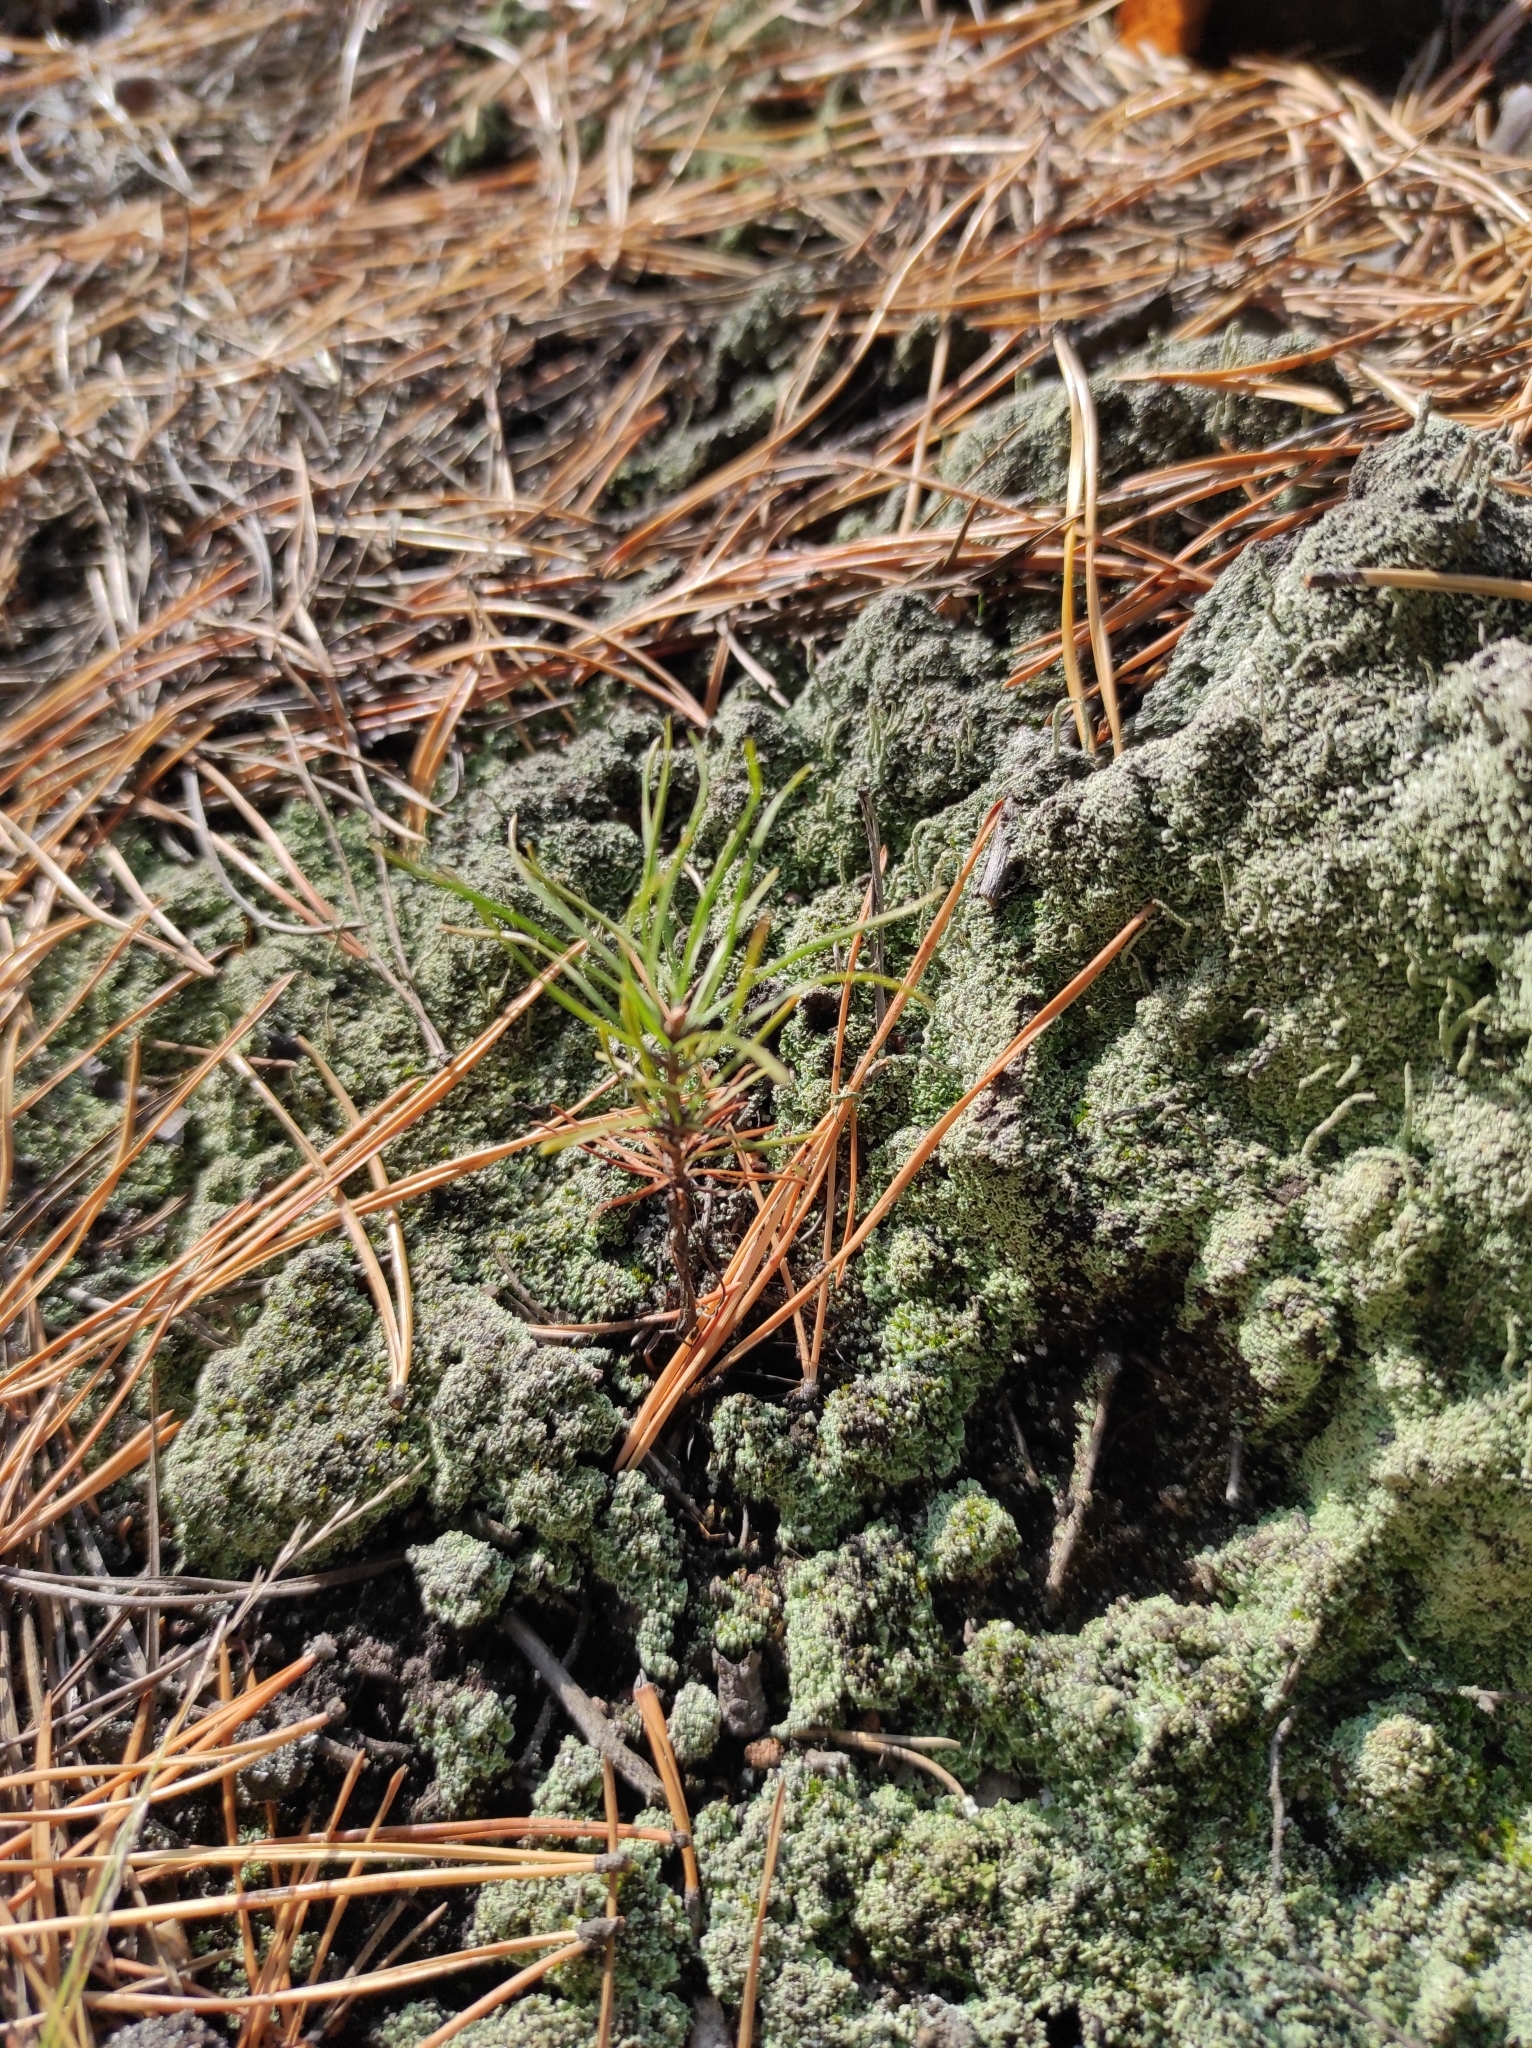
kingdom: Plantae
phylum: Tracheophyta
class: Pinopsida
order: Pinales
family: Pinaceae
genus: Pinus
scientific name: Pinus sylvestris
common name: Scots pine
